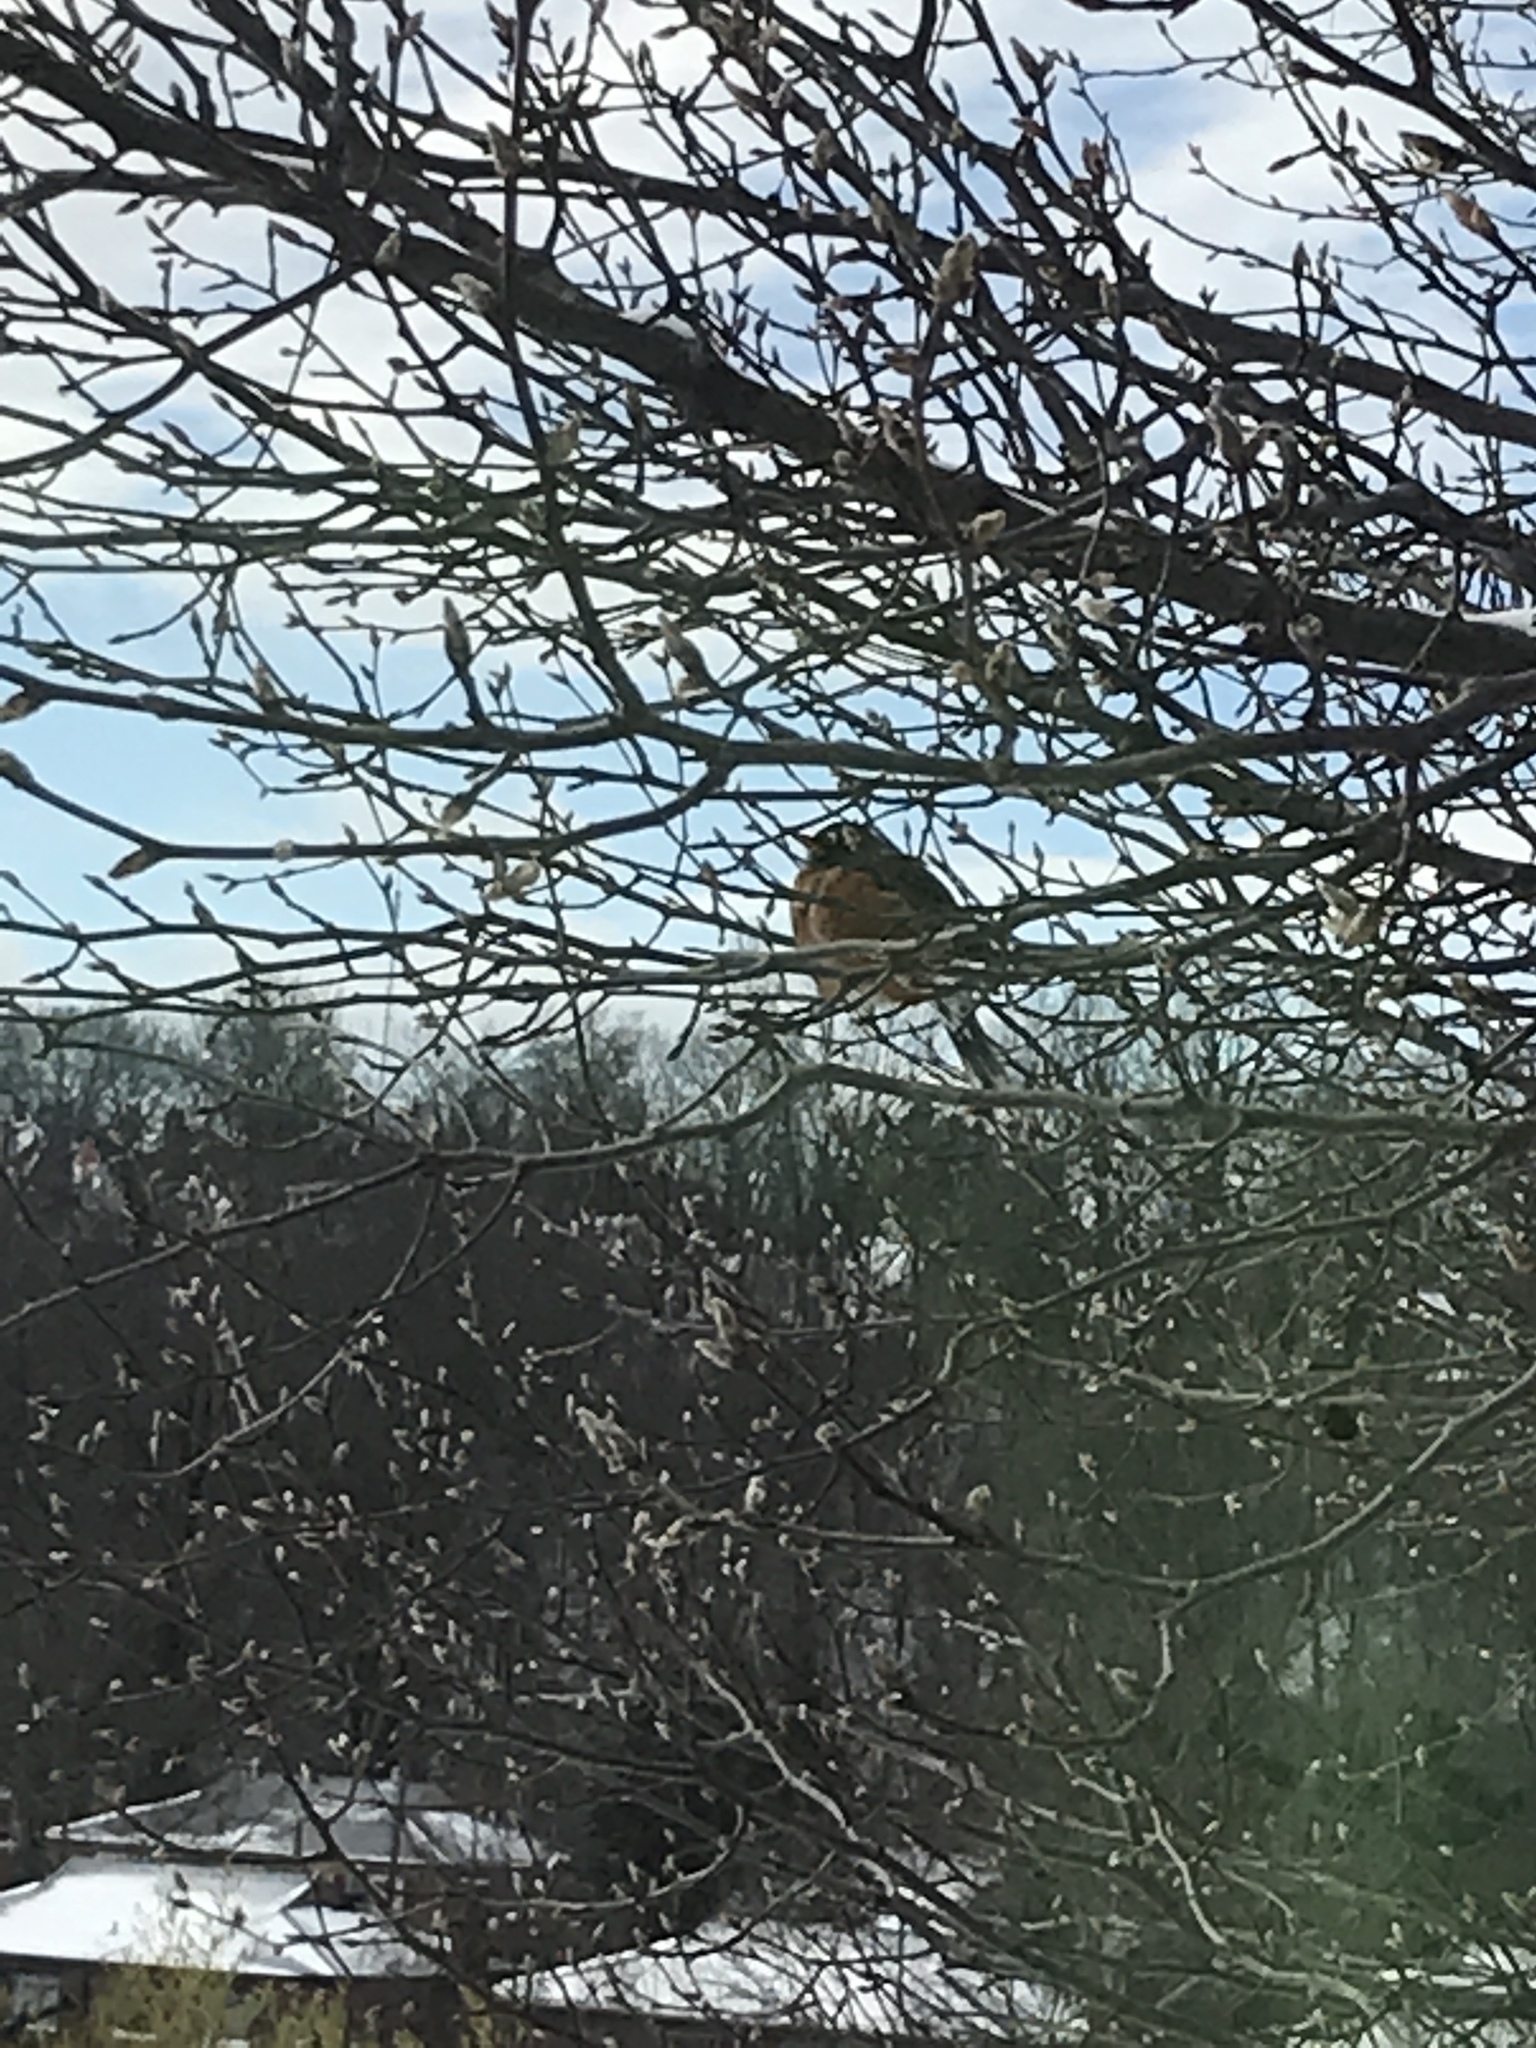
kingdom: Animalia
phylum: Chordata
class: Aves
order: Passeriformes
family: Turdidae
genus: Turdus
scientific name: Turdus migratorius
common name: American robin
